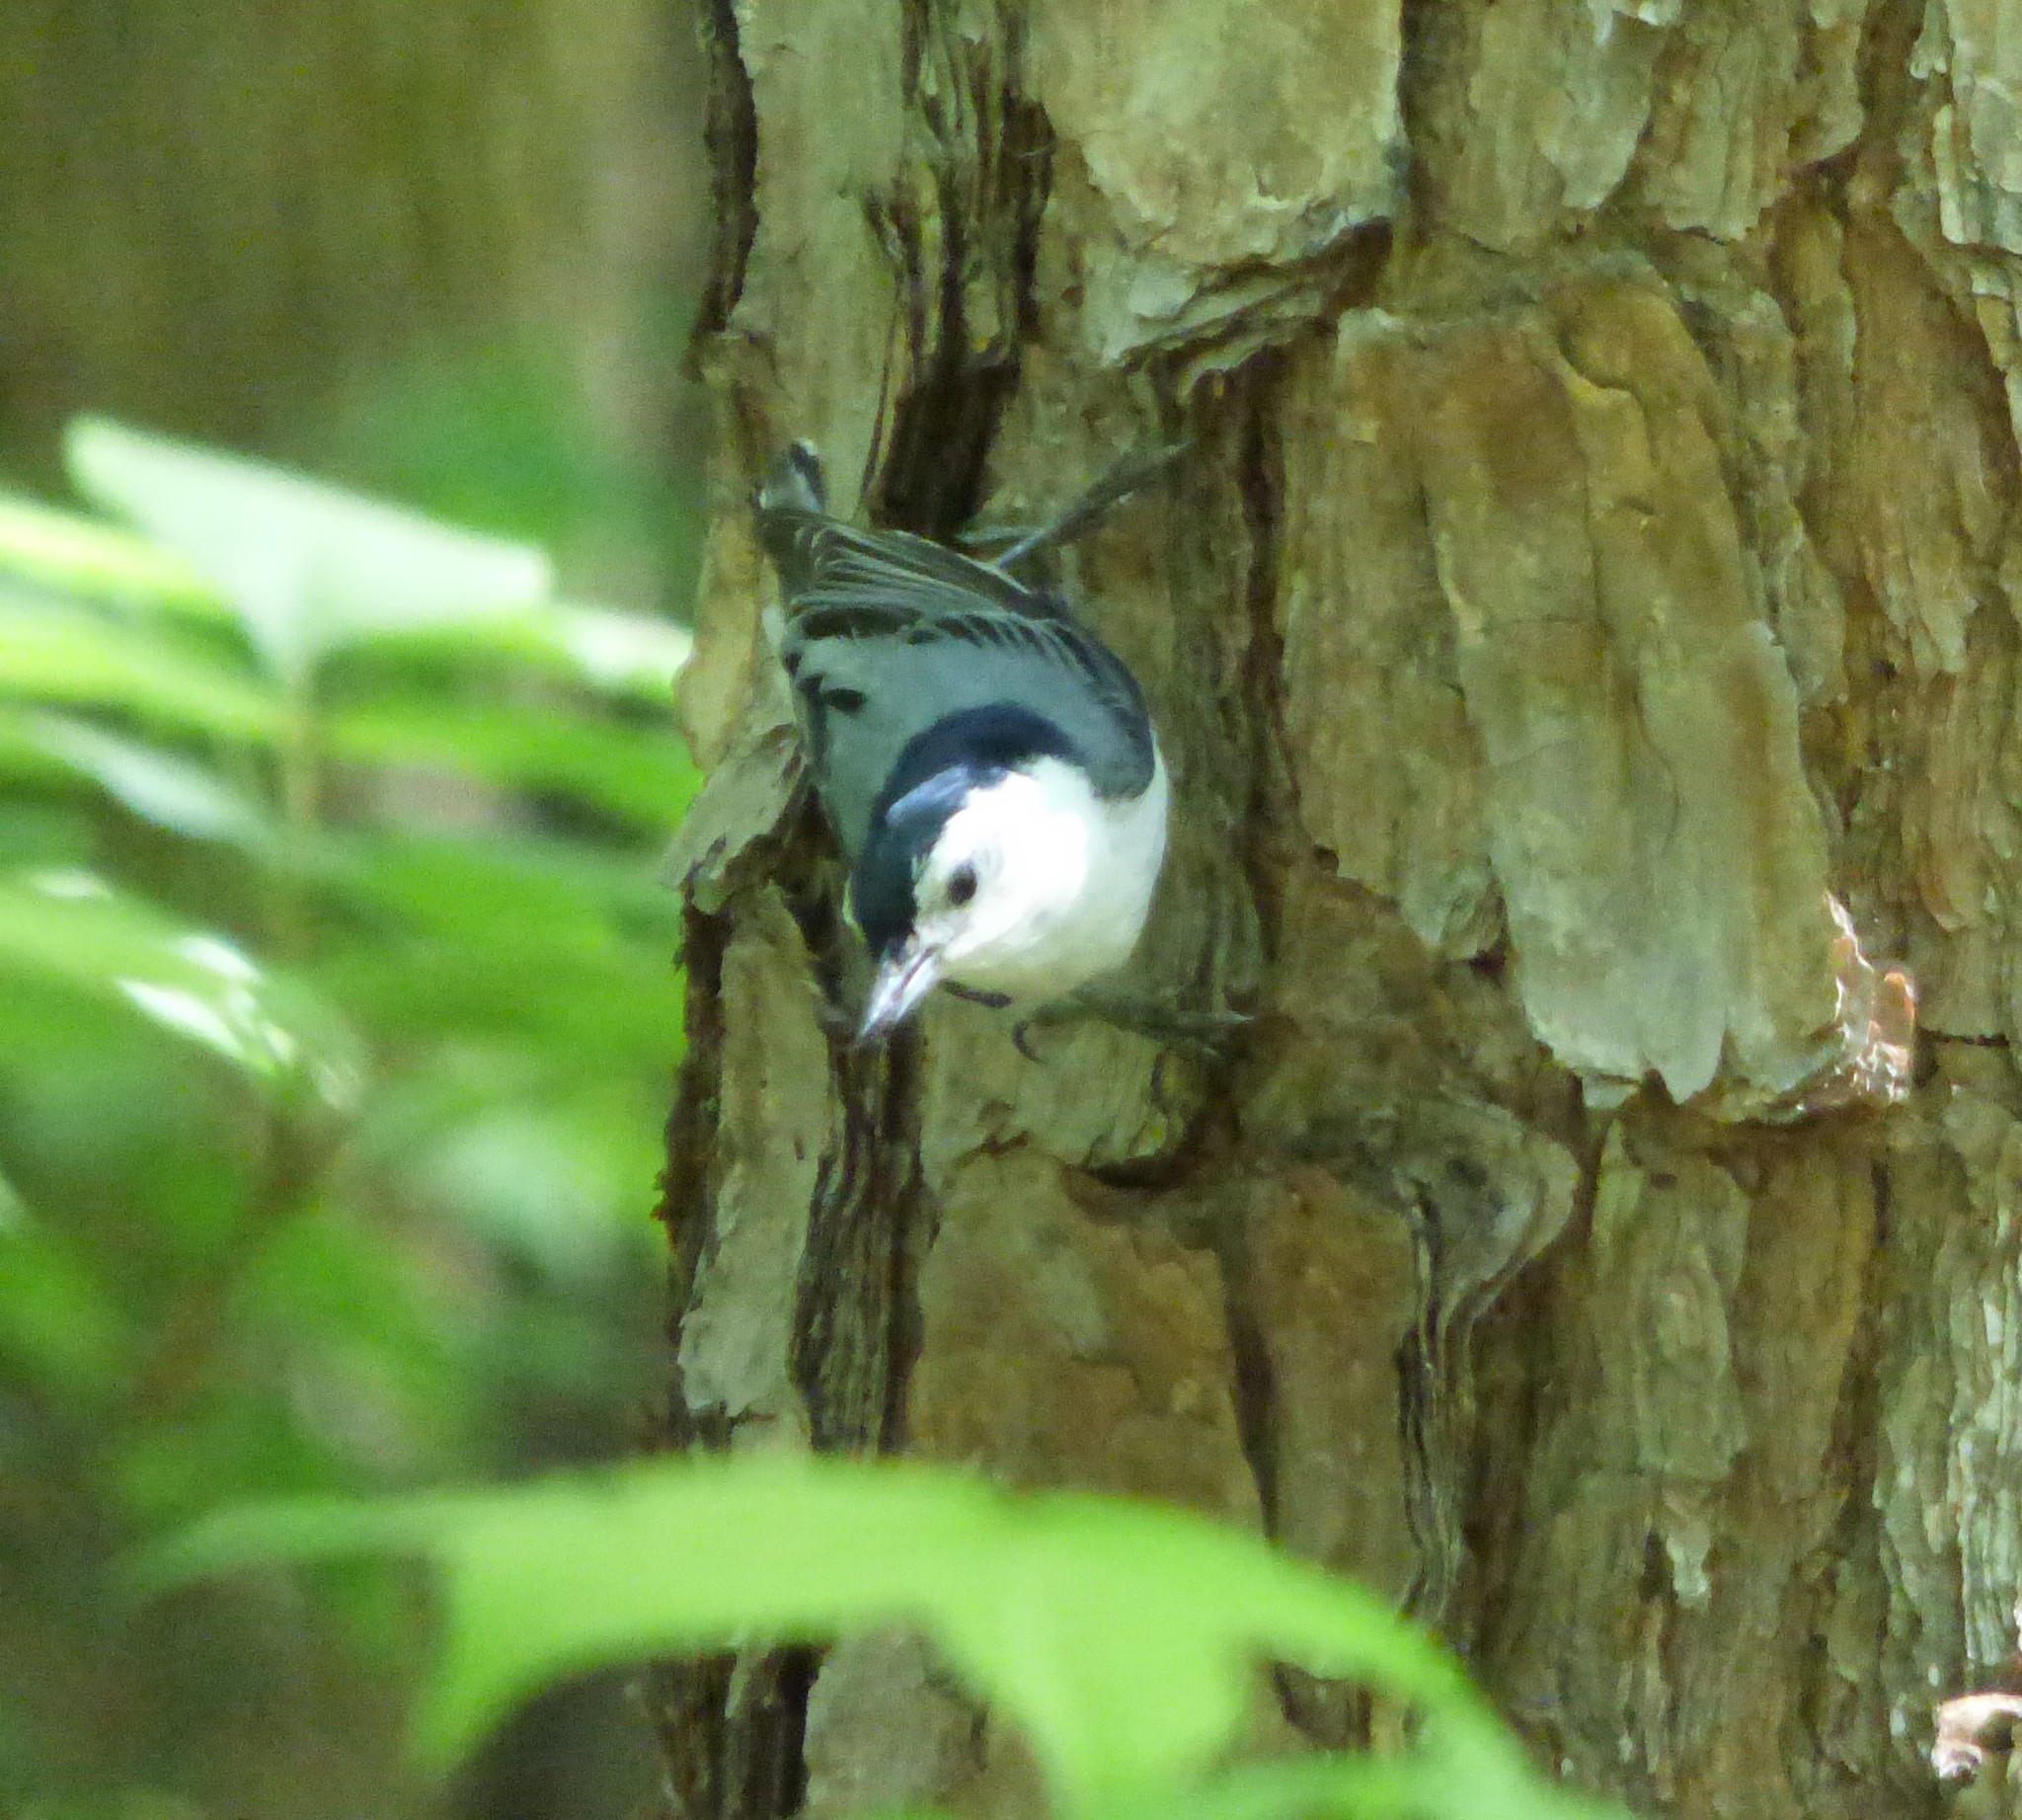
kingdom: Animalia
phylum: Chordata
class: Aves
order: Passeriformes
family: Sittidae
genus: Sitta
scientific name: Sitta carolinensis
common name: White-breasted nuthatch
